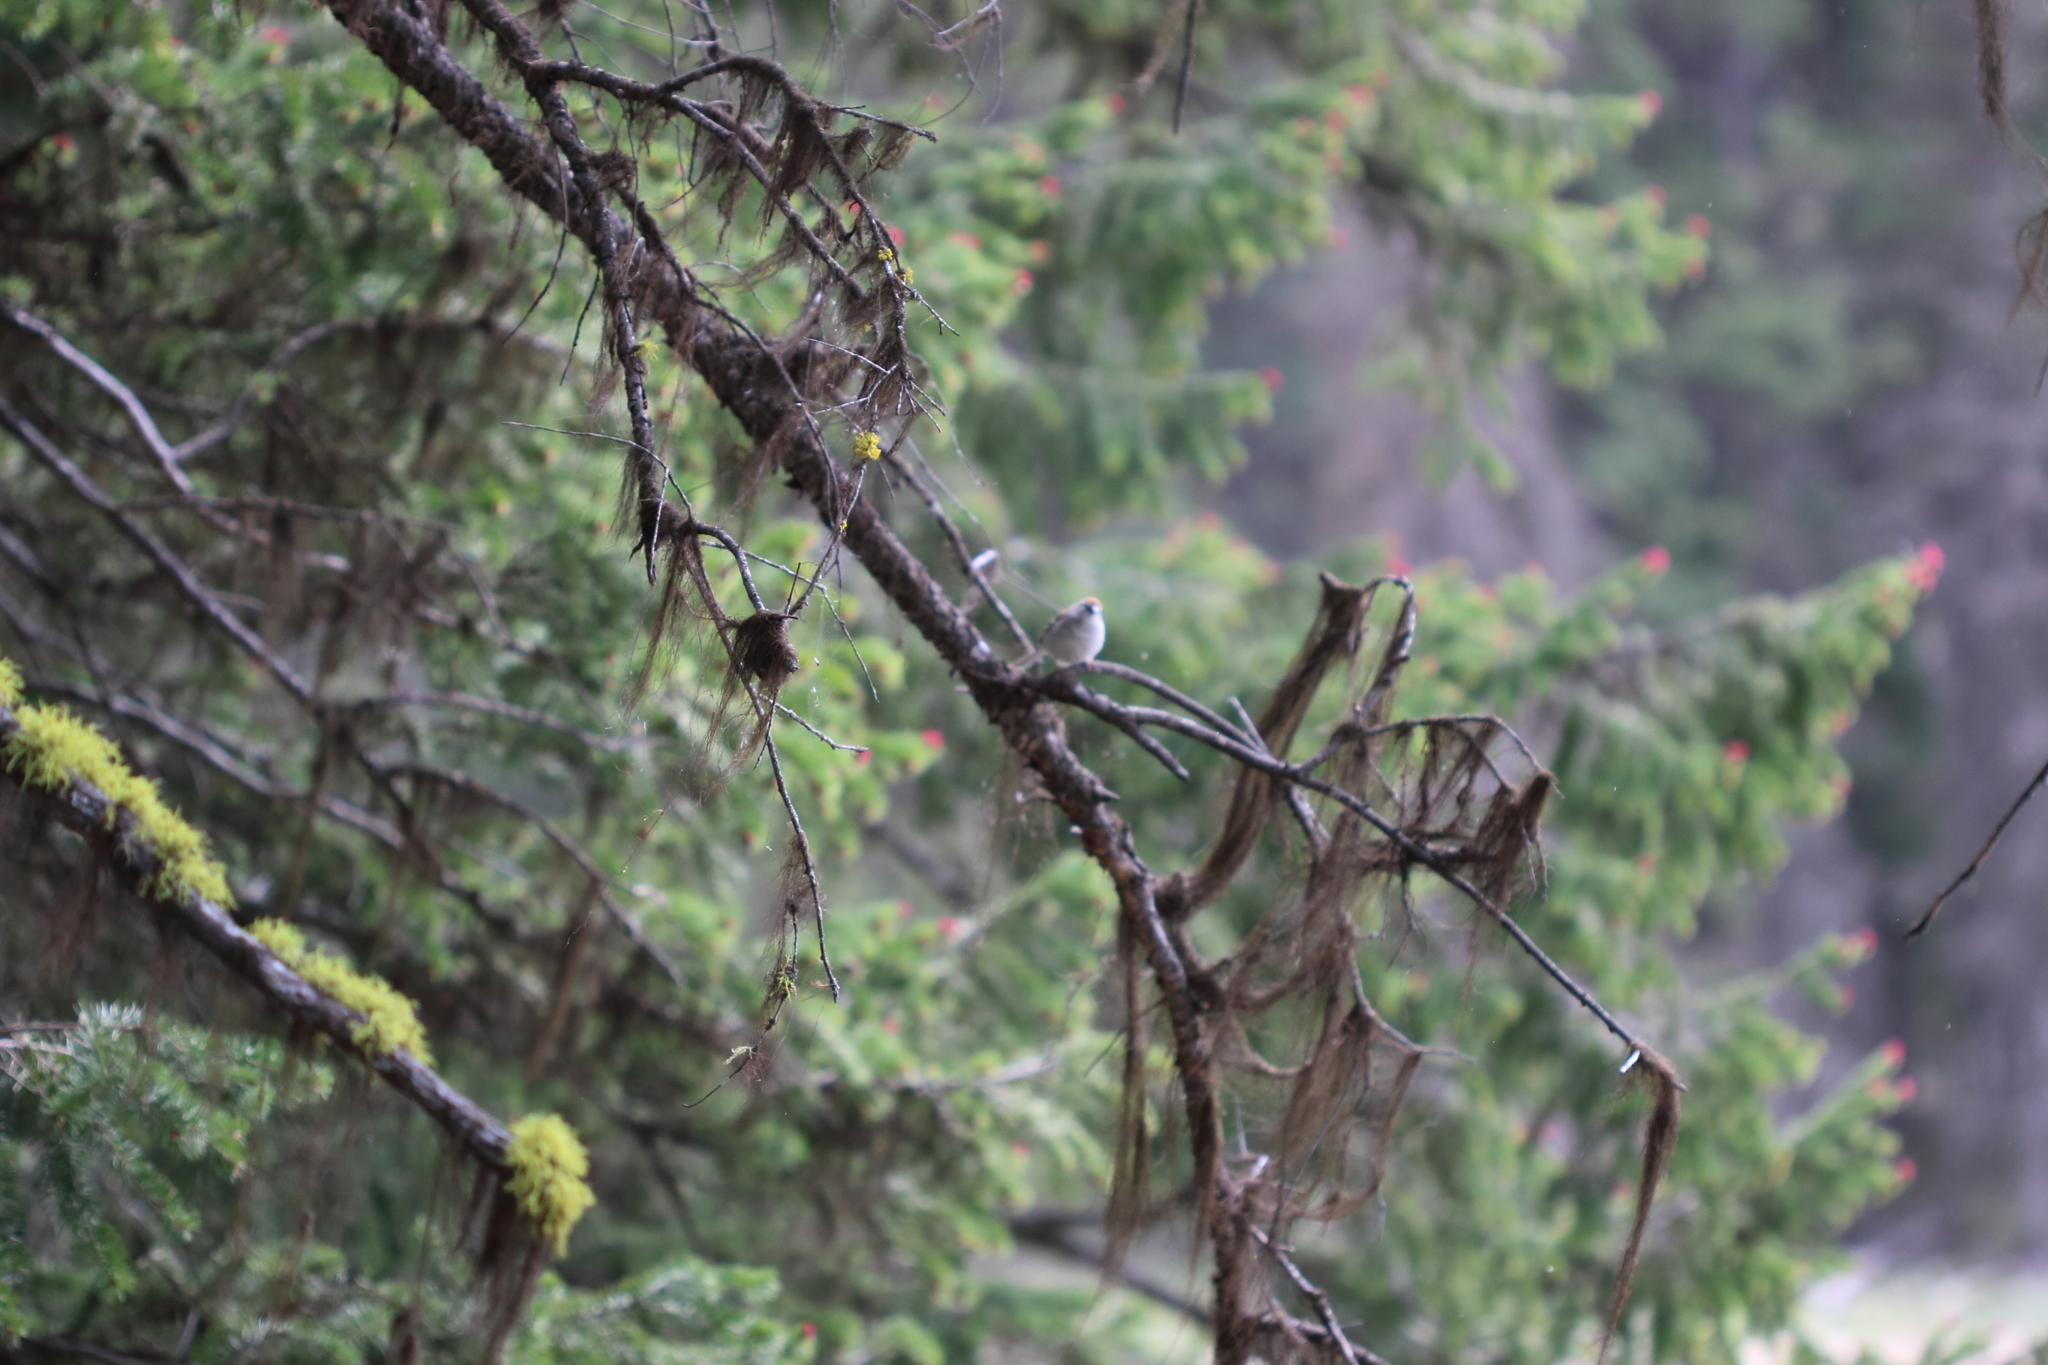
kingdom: Animalia
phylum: Chordata
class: Aves
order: Passeriformes
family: Passerellidae
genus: Spizella
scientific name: Spizella passerina
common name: Chipping sparrow
